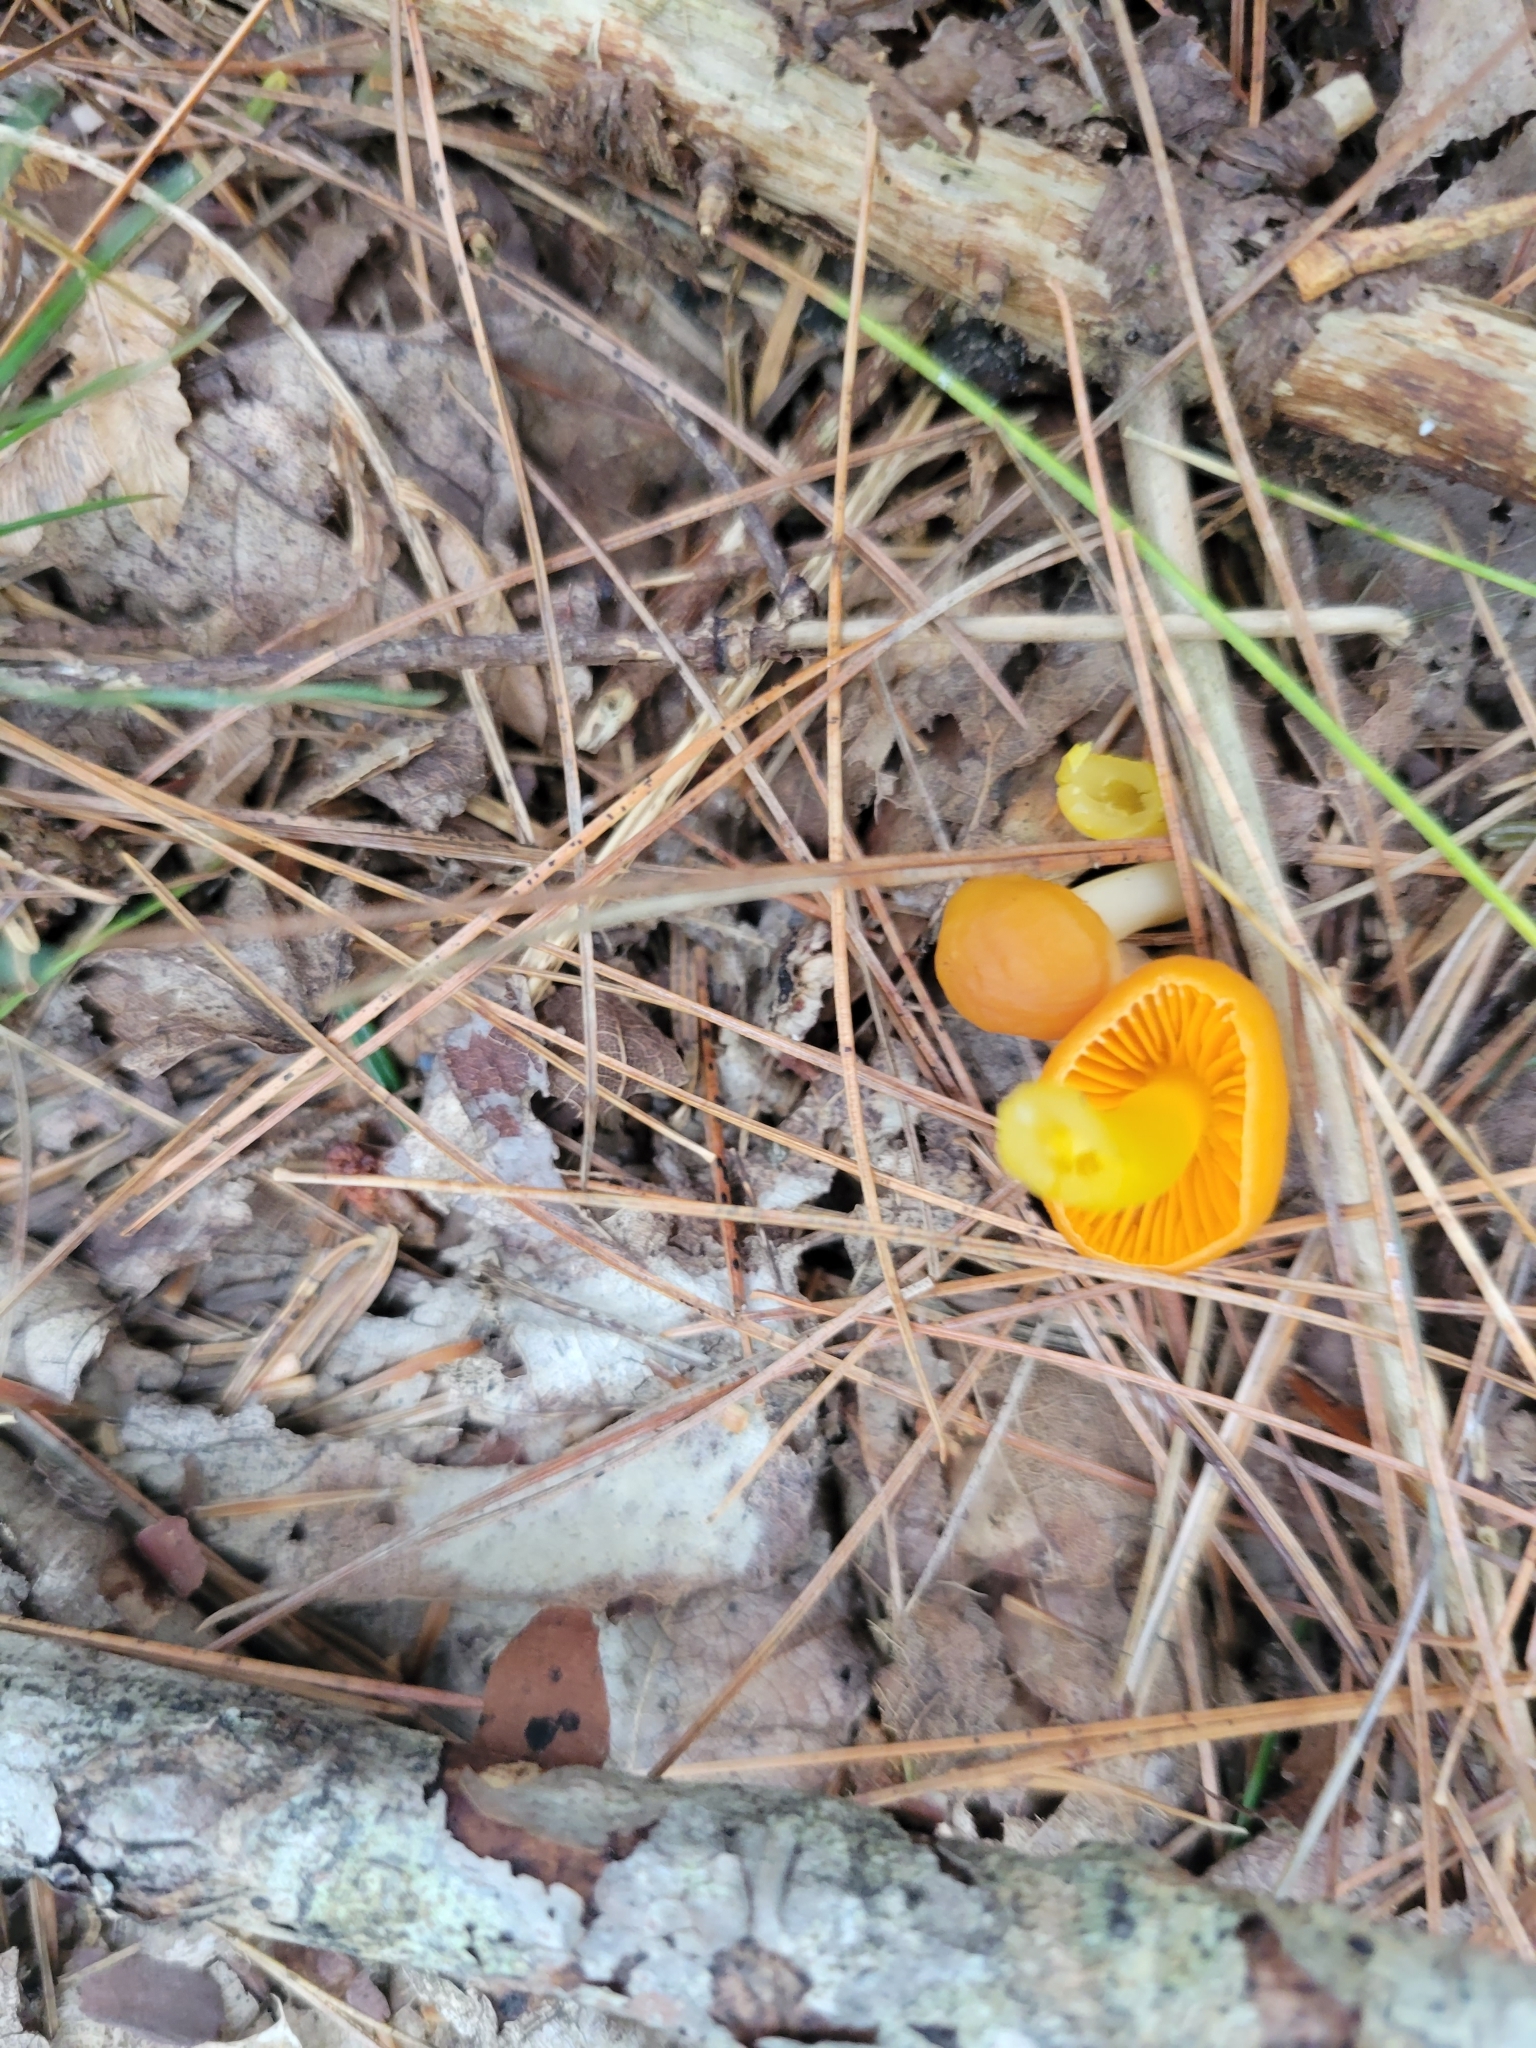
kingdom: Fungi
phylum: Basidiomycota
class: Agaricomycetes
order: Agaricales
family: Hygrophoraceae
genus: Humidicutis
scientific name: Humidicutis marginata
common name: Orange gilled waxcap
